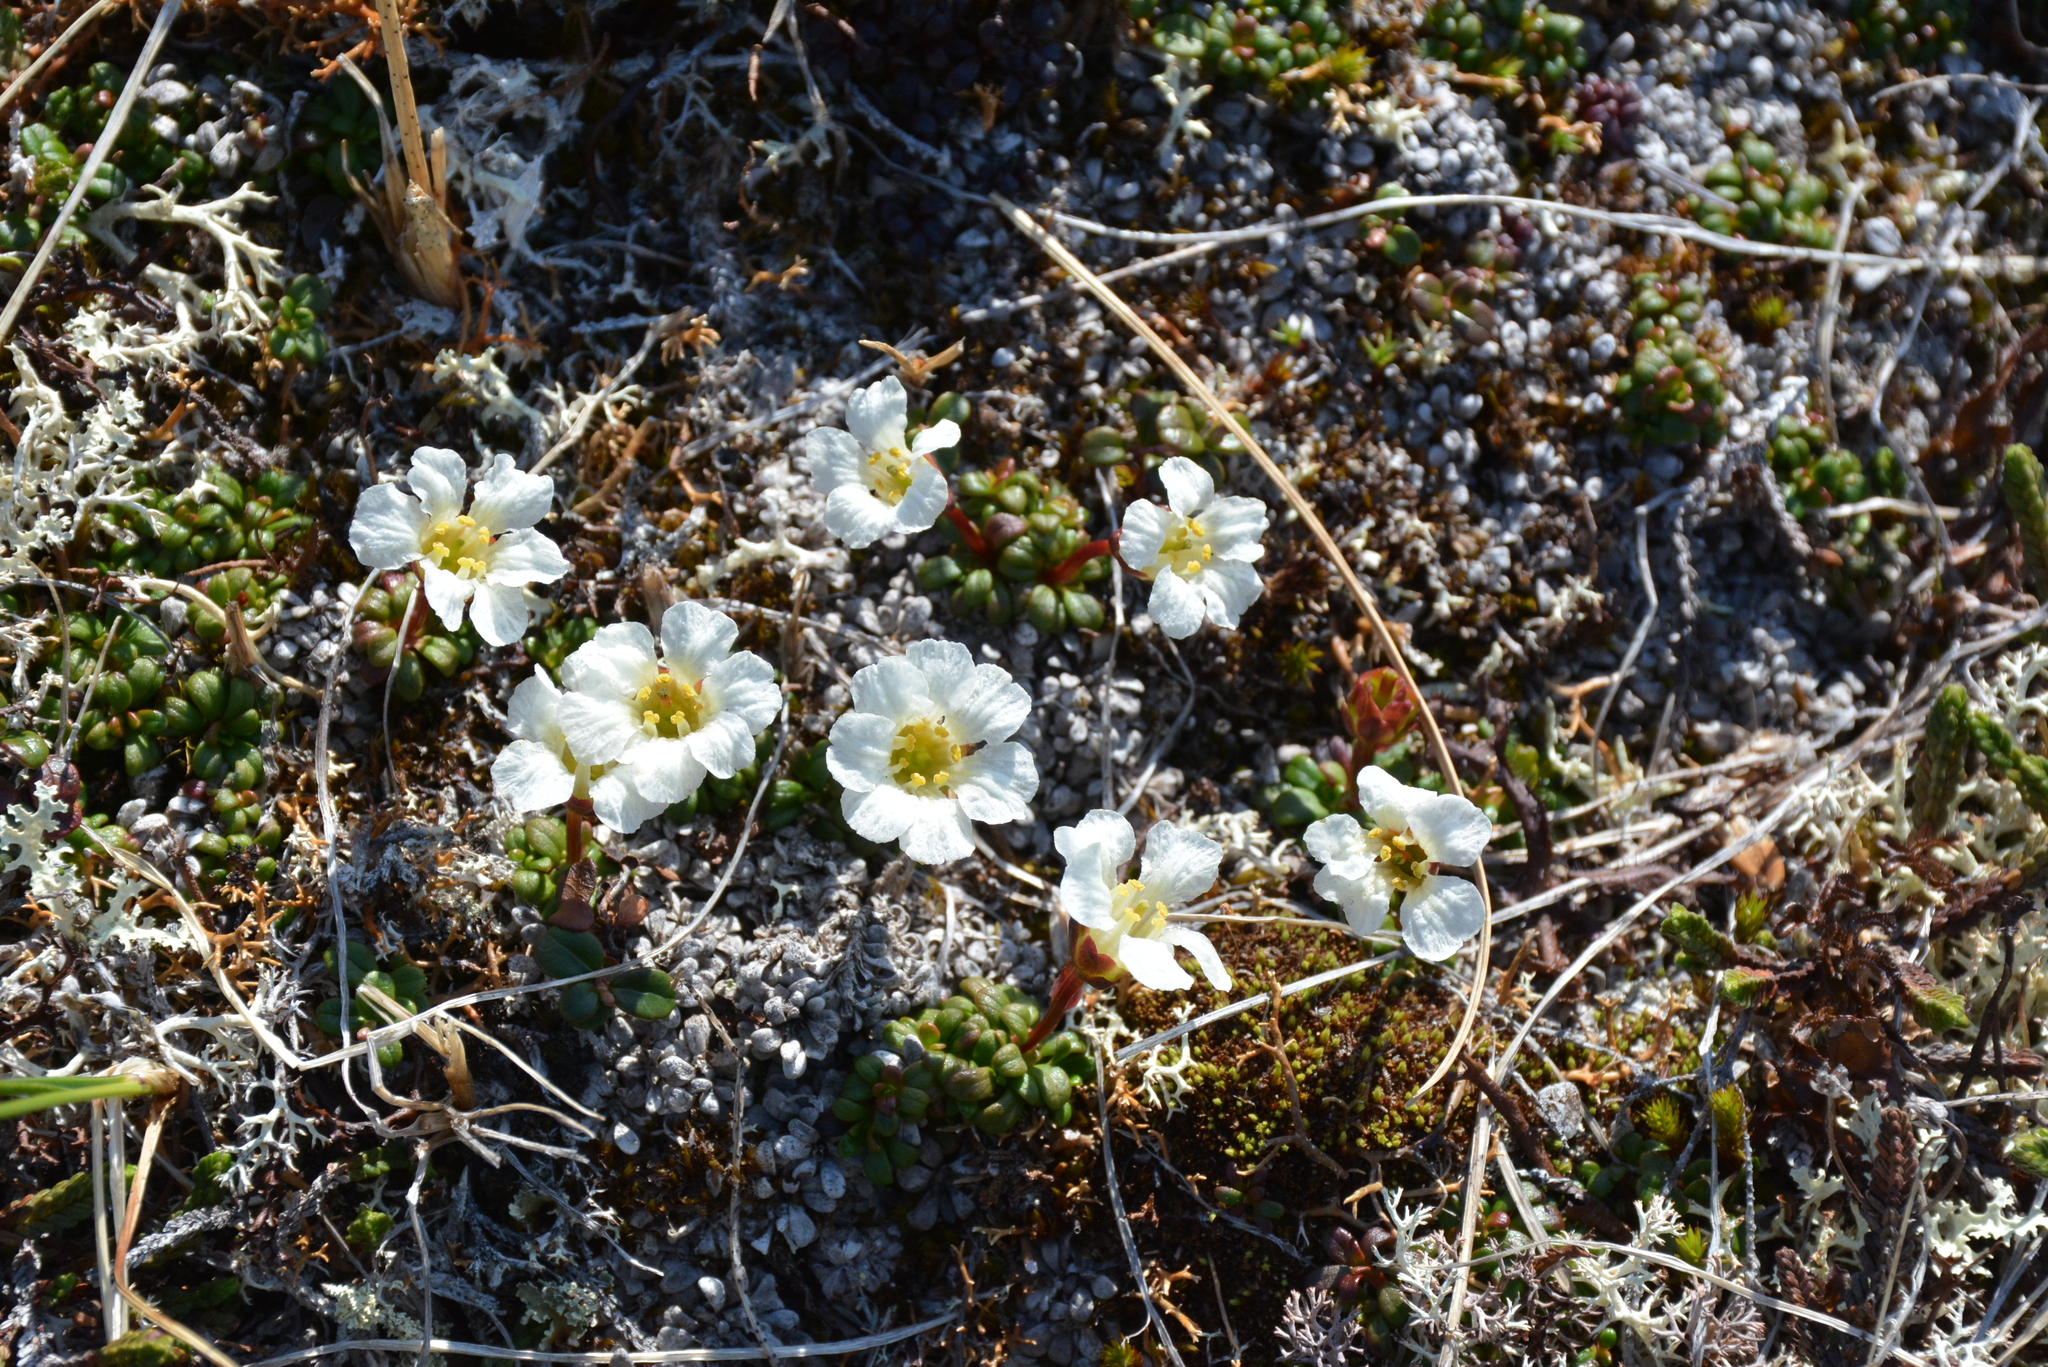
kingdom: Plantae
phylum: Tracheophyta
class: Magnoliopsida
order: Ericales
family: Diapensiaceae
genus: Diapensia
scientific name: Diapensia obovata
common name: Alaska diapensia
